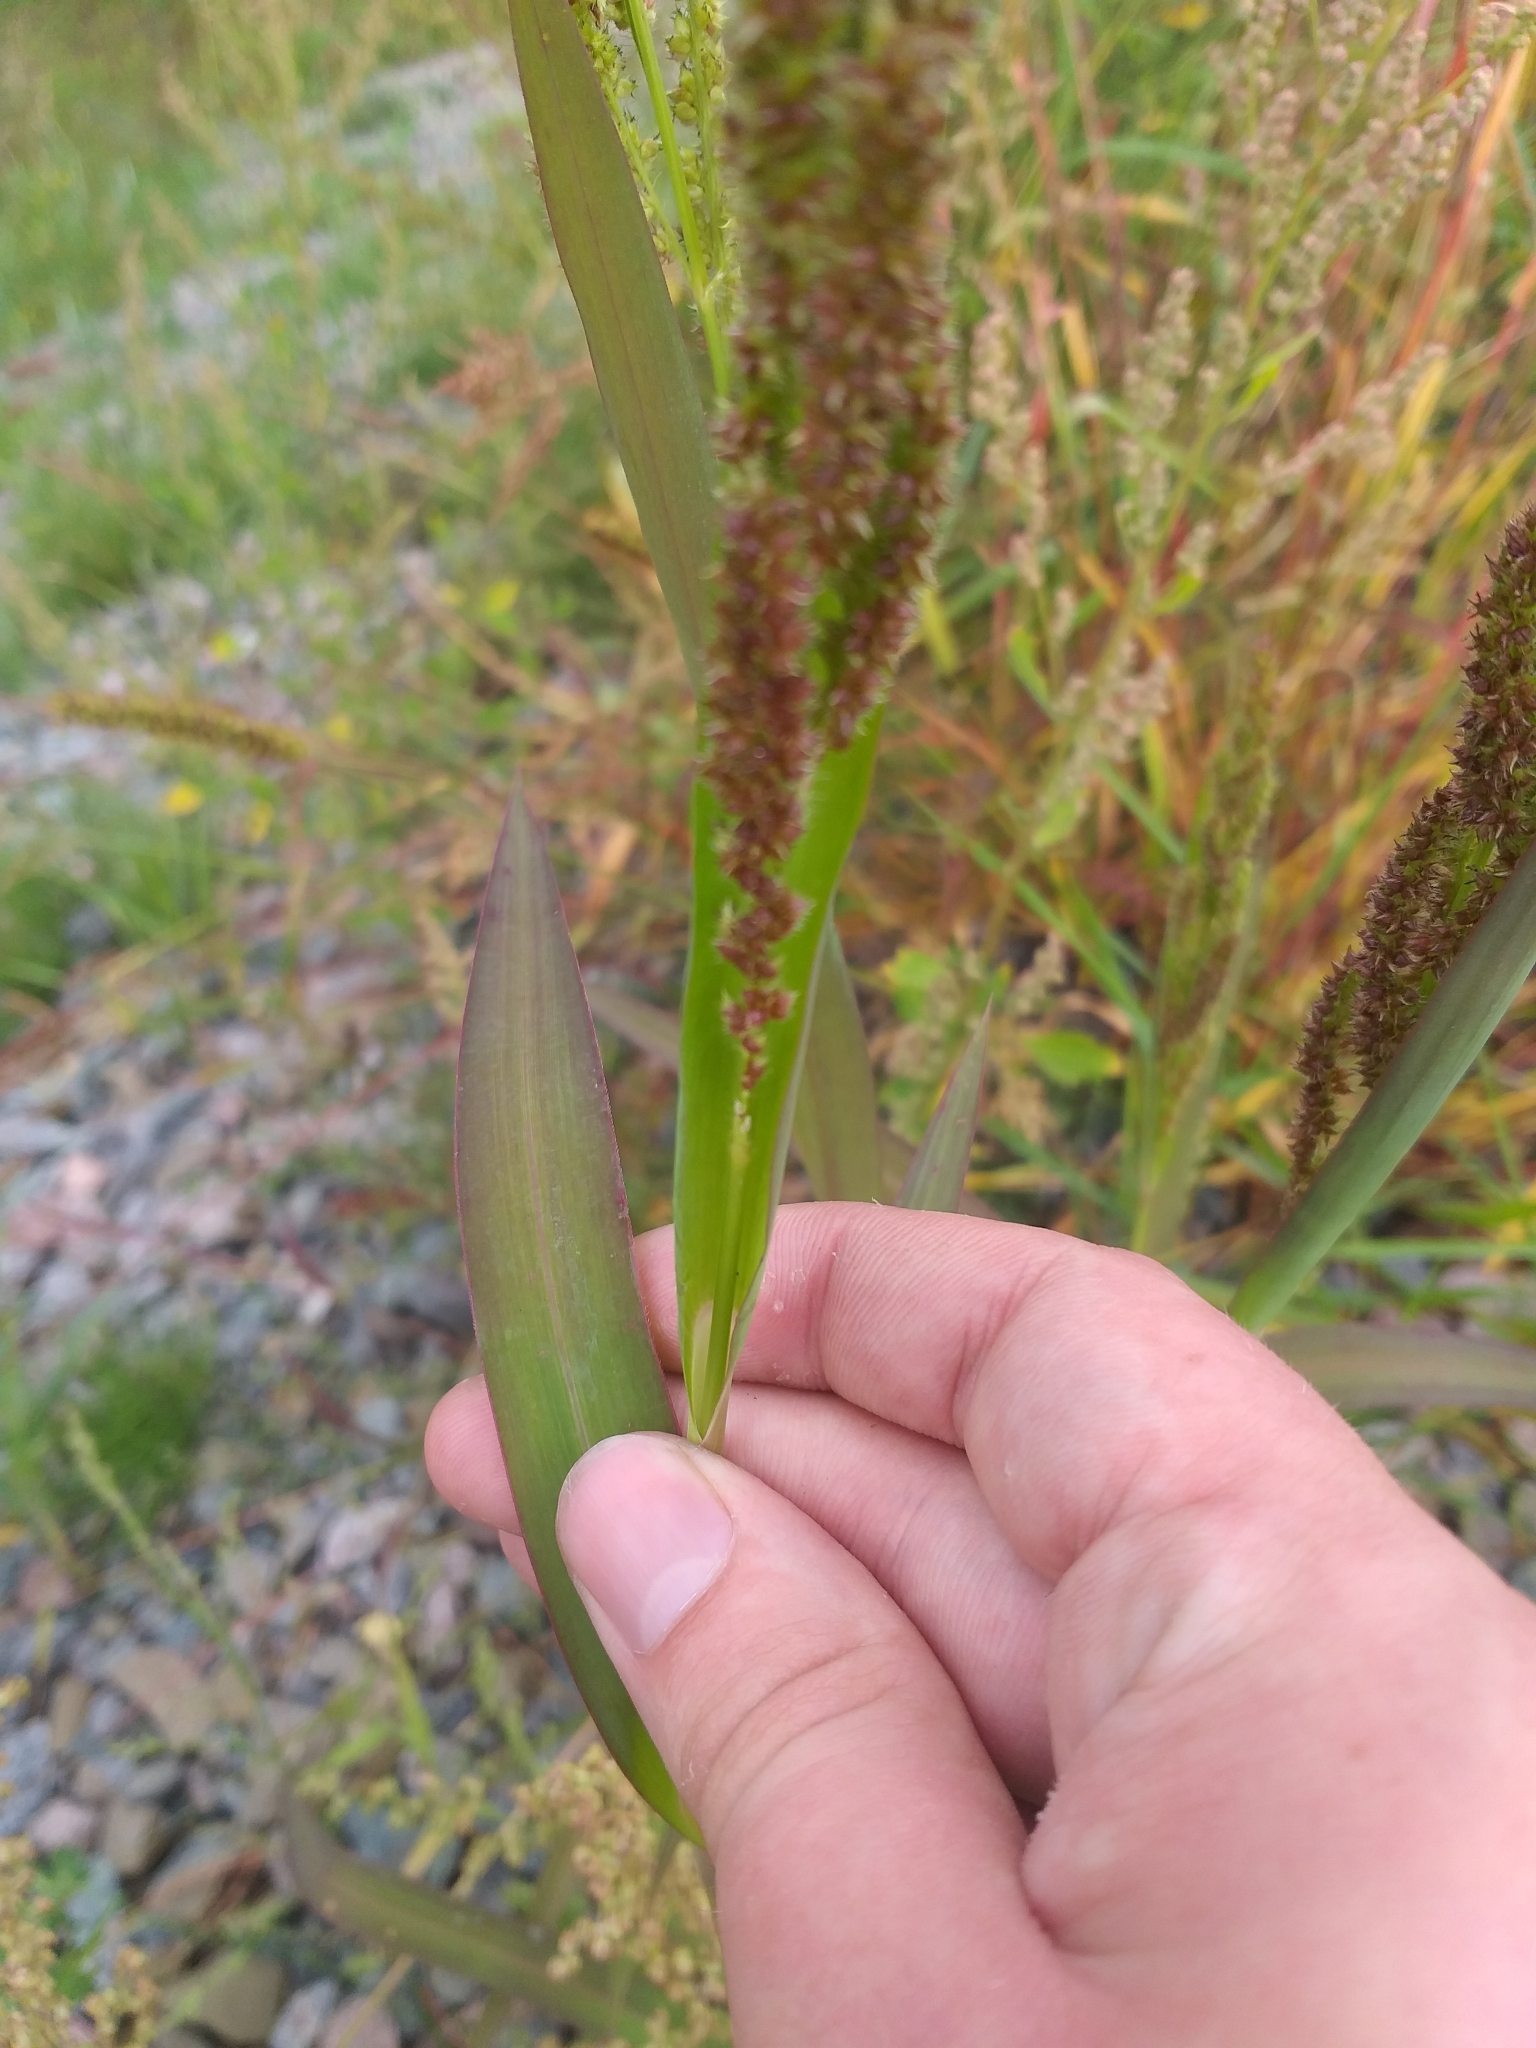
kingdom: Plantae
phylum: Tracheophyta
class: Liliopsida
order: Poales
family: Poaceae
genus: Echinochloa
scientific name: Echinochloa muricata
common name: American barnyard grass
